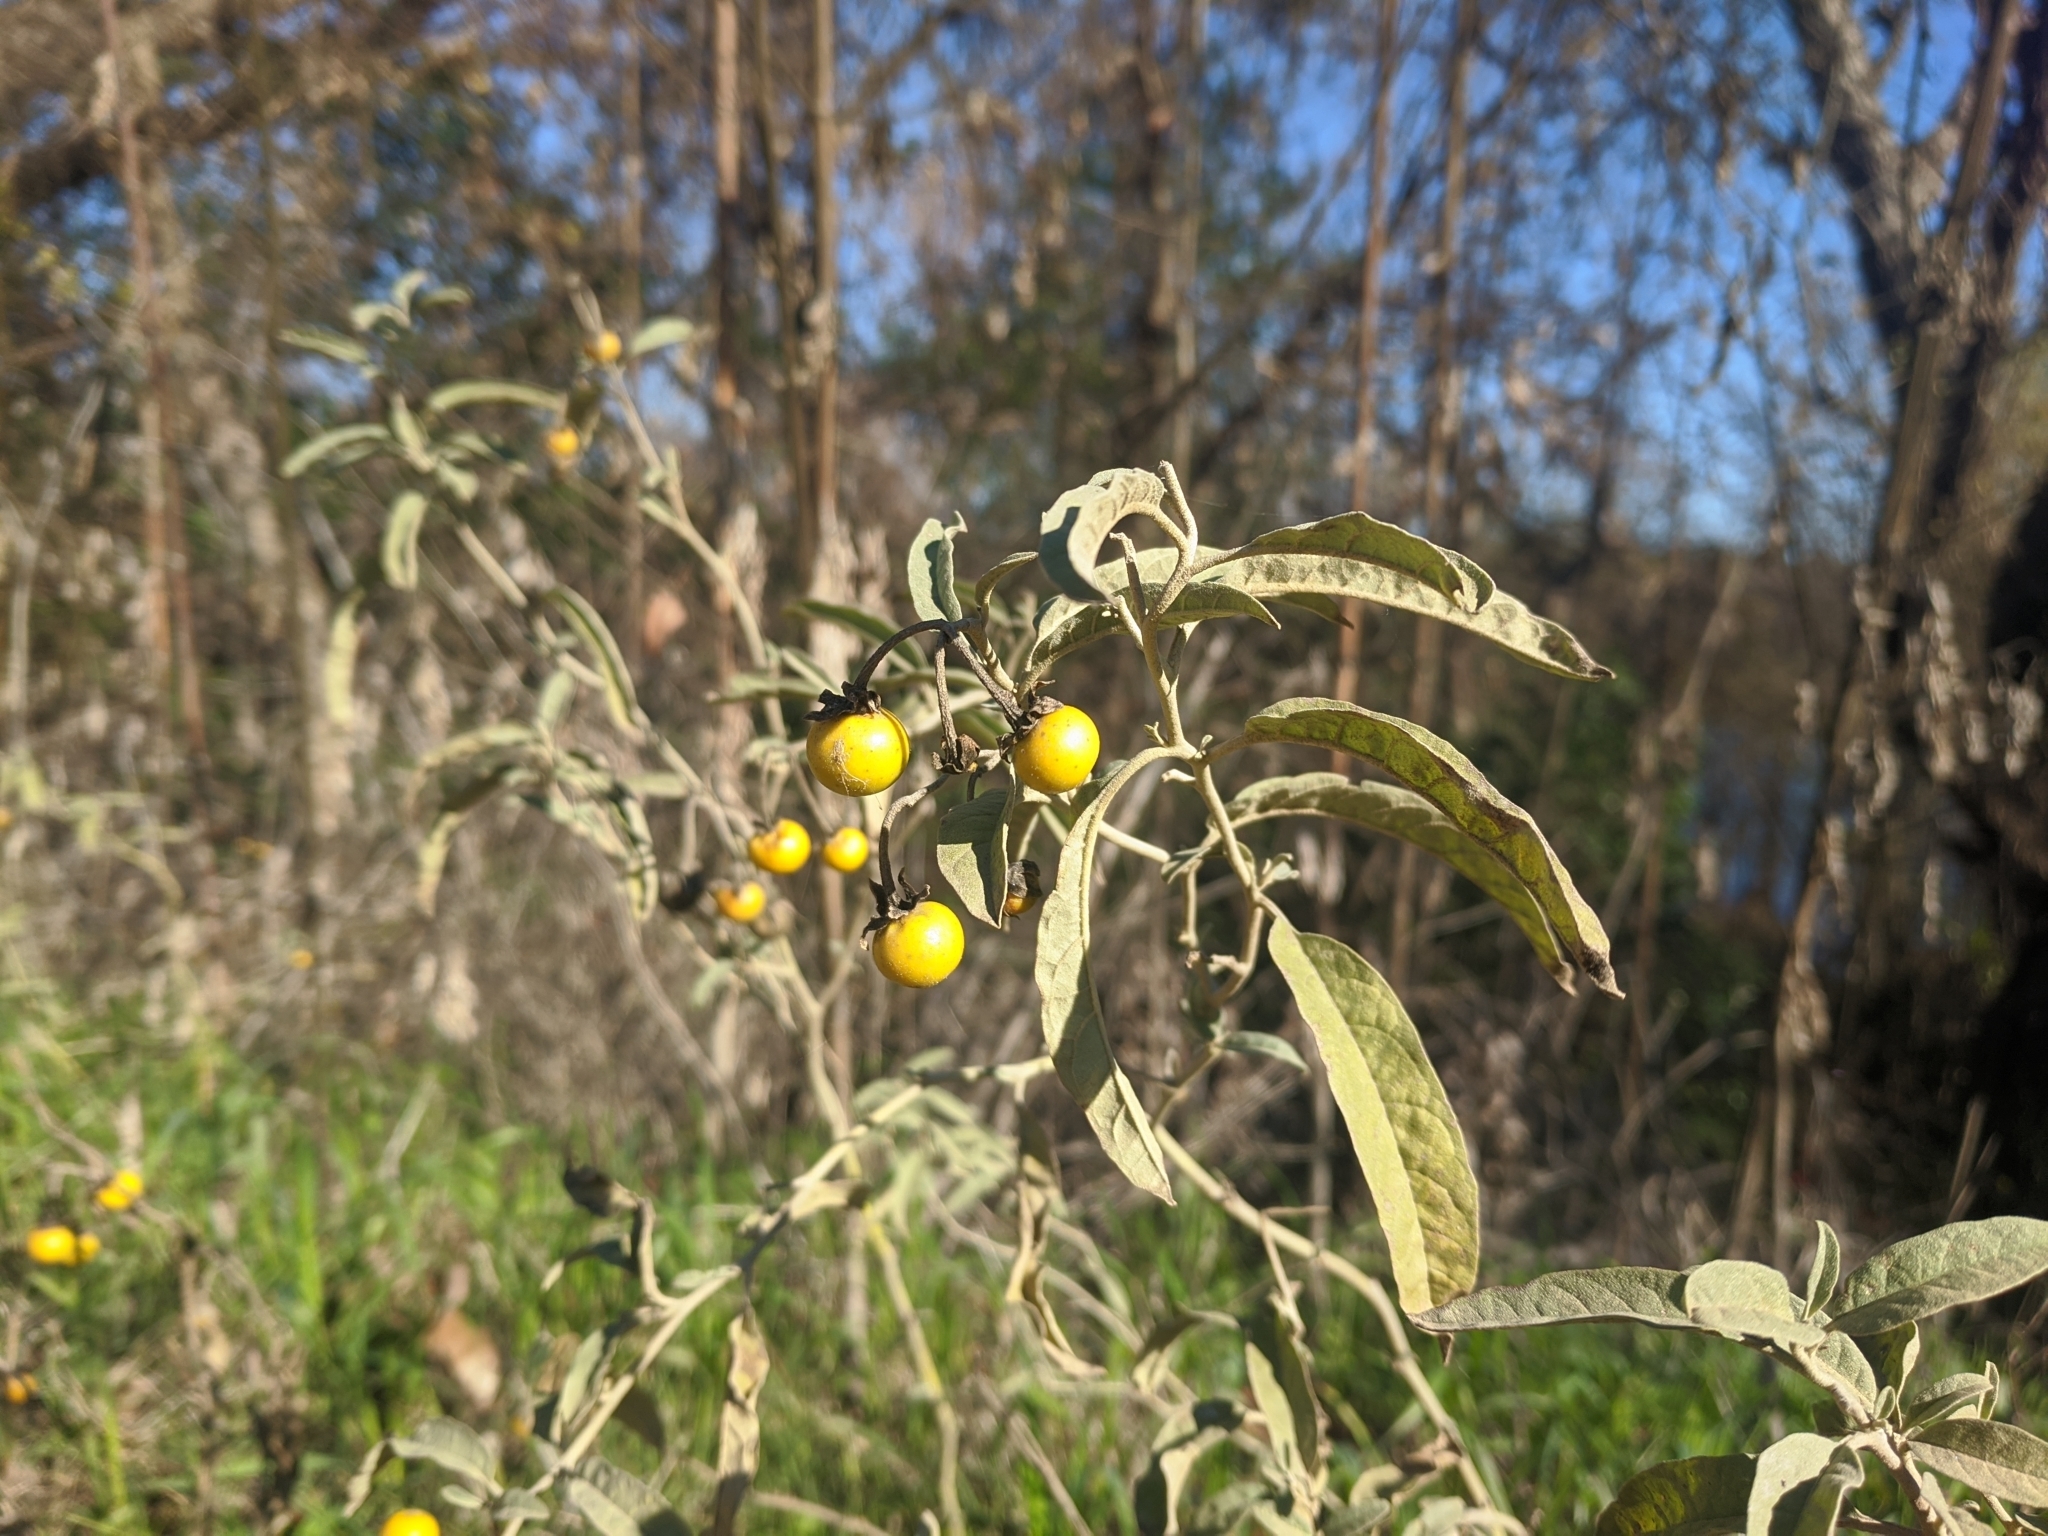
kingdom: Plantae
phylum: Tracheophyta
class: Magnoliopsida
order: Solanales
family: Solanaceae
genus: Solanum
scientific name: Solanum elaeagnifolium
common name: Silverleaf nightshade
